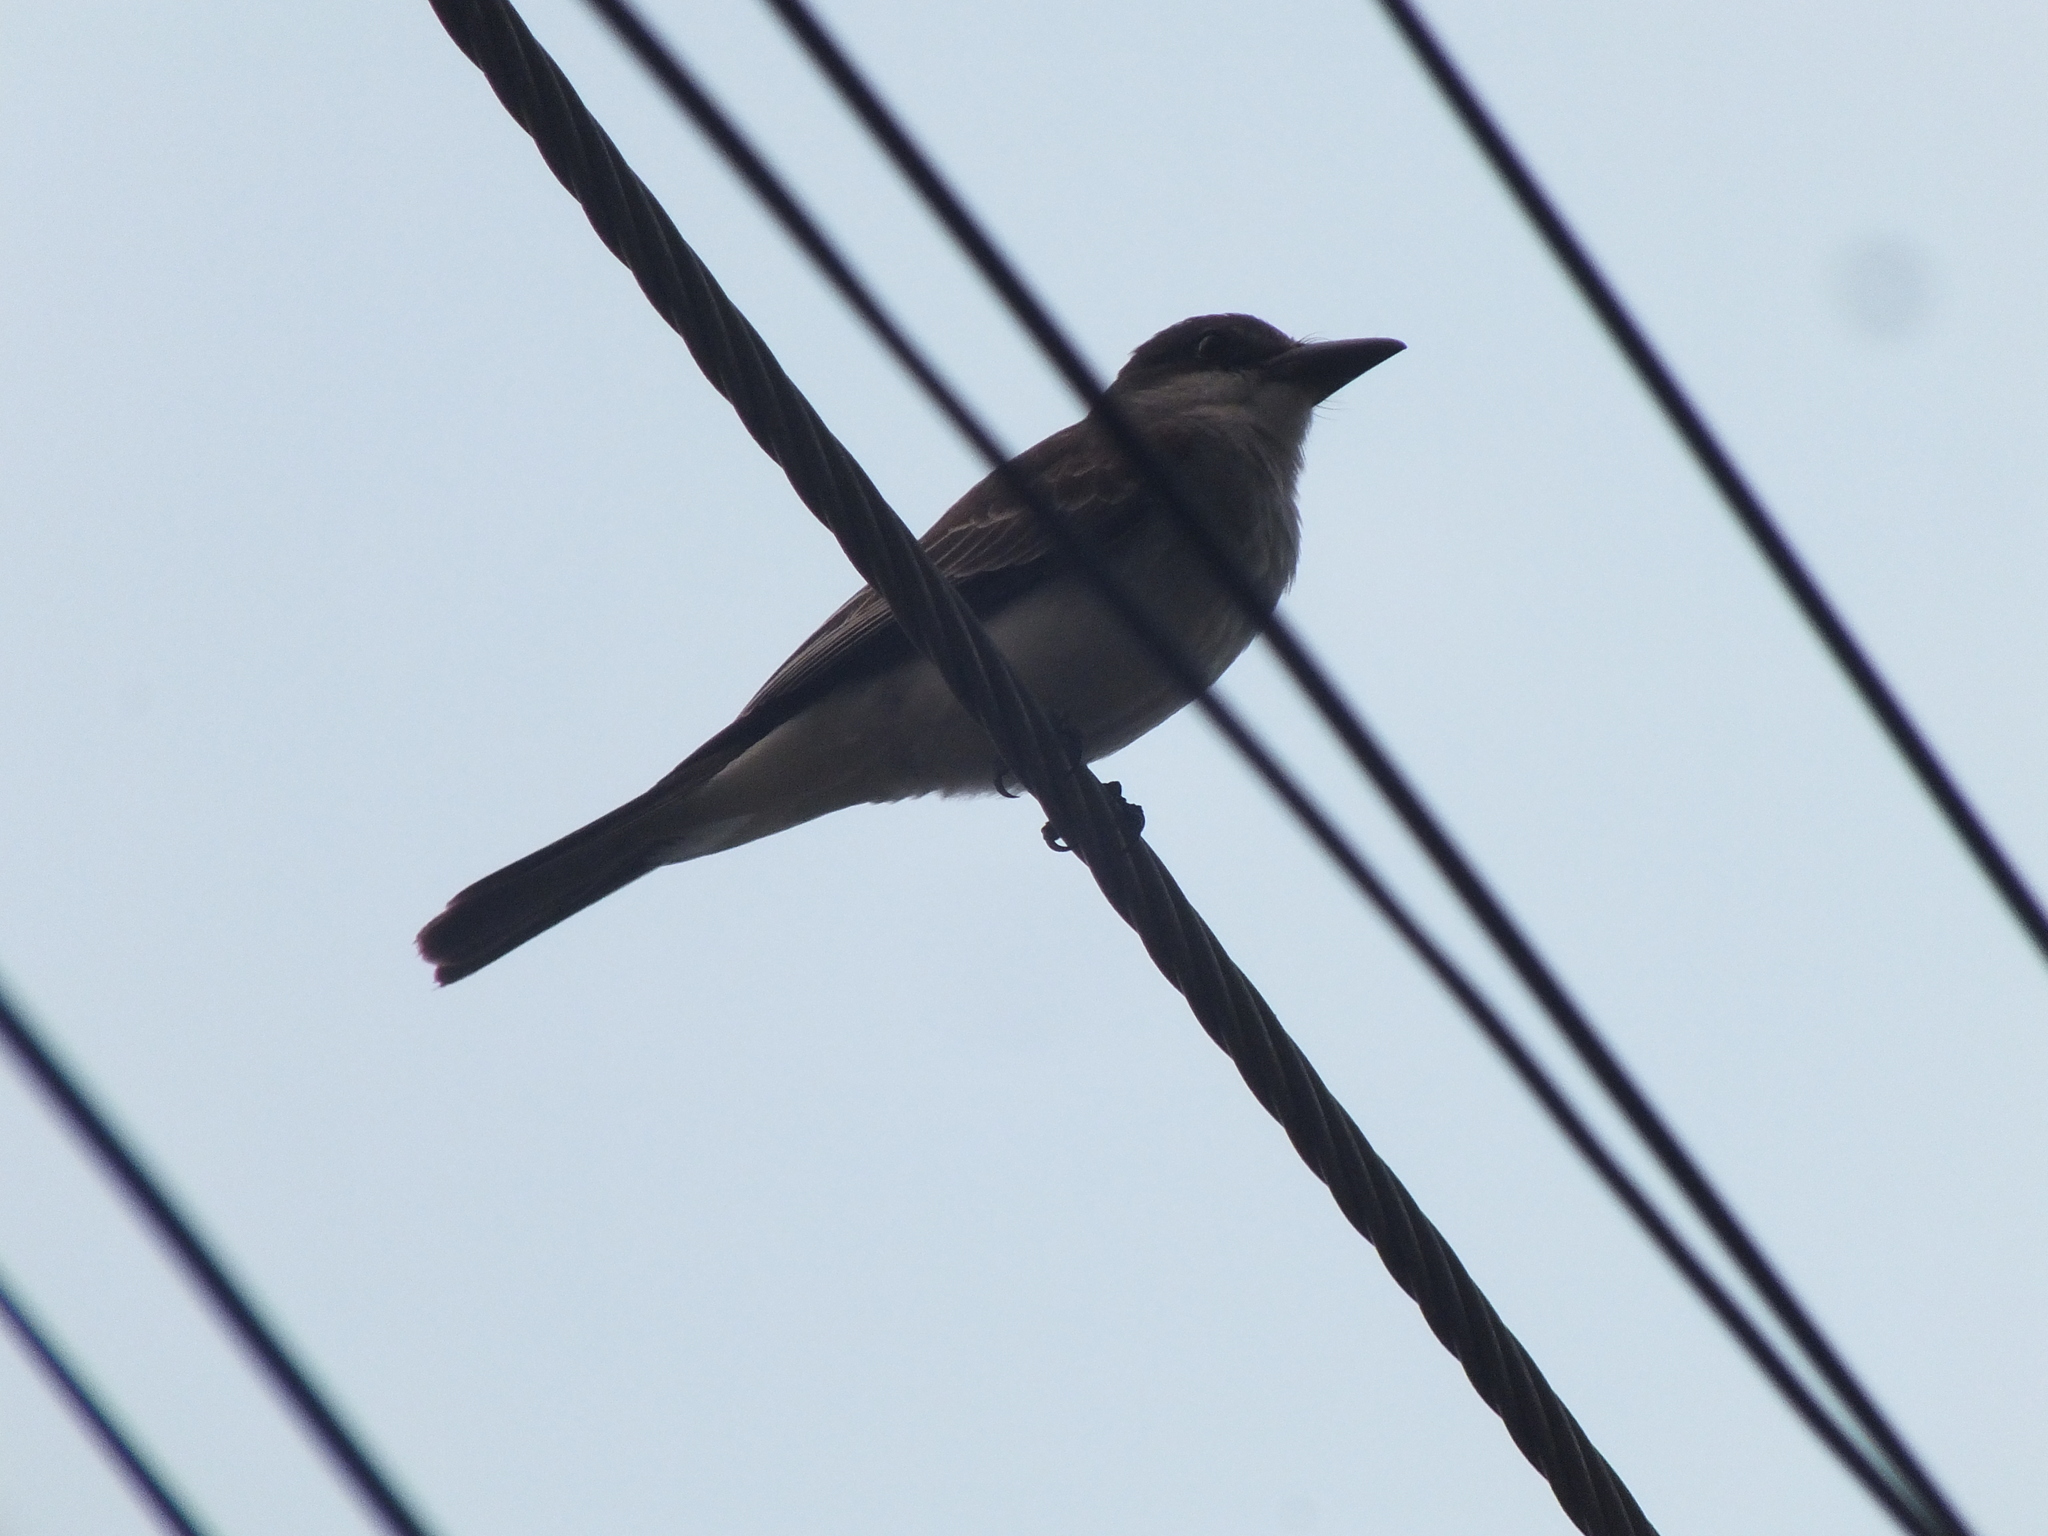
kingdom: Animalia
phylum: Chordata
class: Aves
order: Passeriformes
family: Tyrannidae
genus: Tyrannus
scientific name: Tyrannus dominicensis
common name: Gray kingbird
